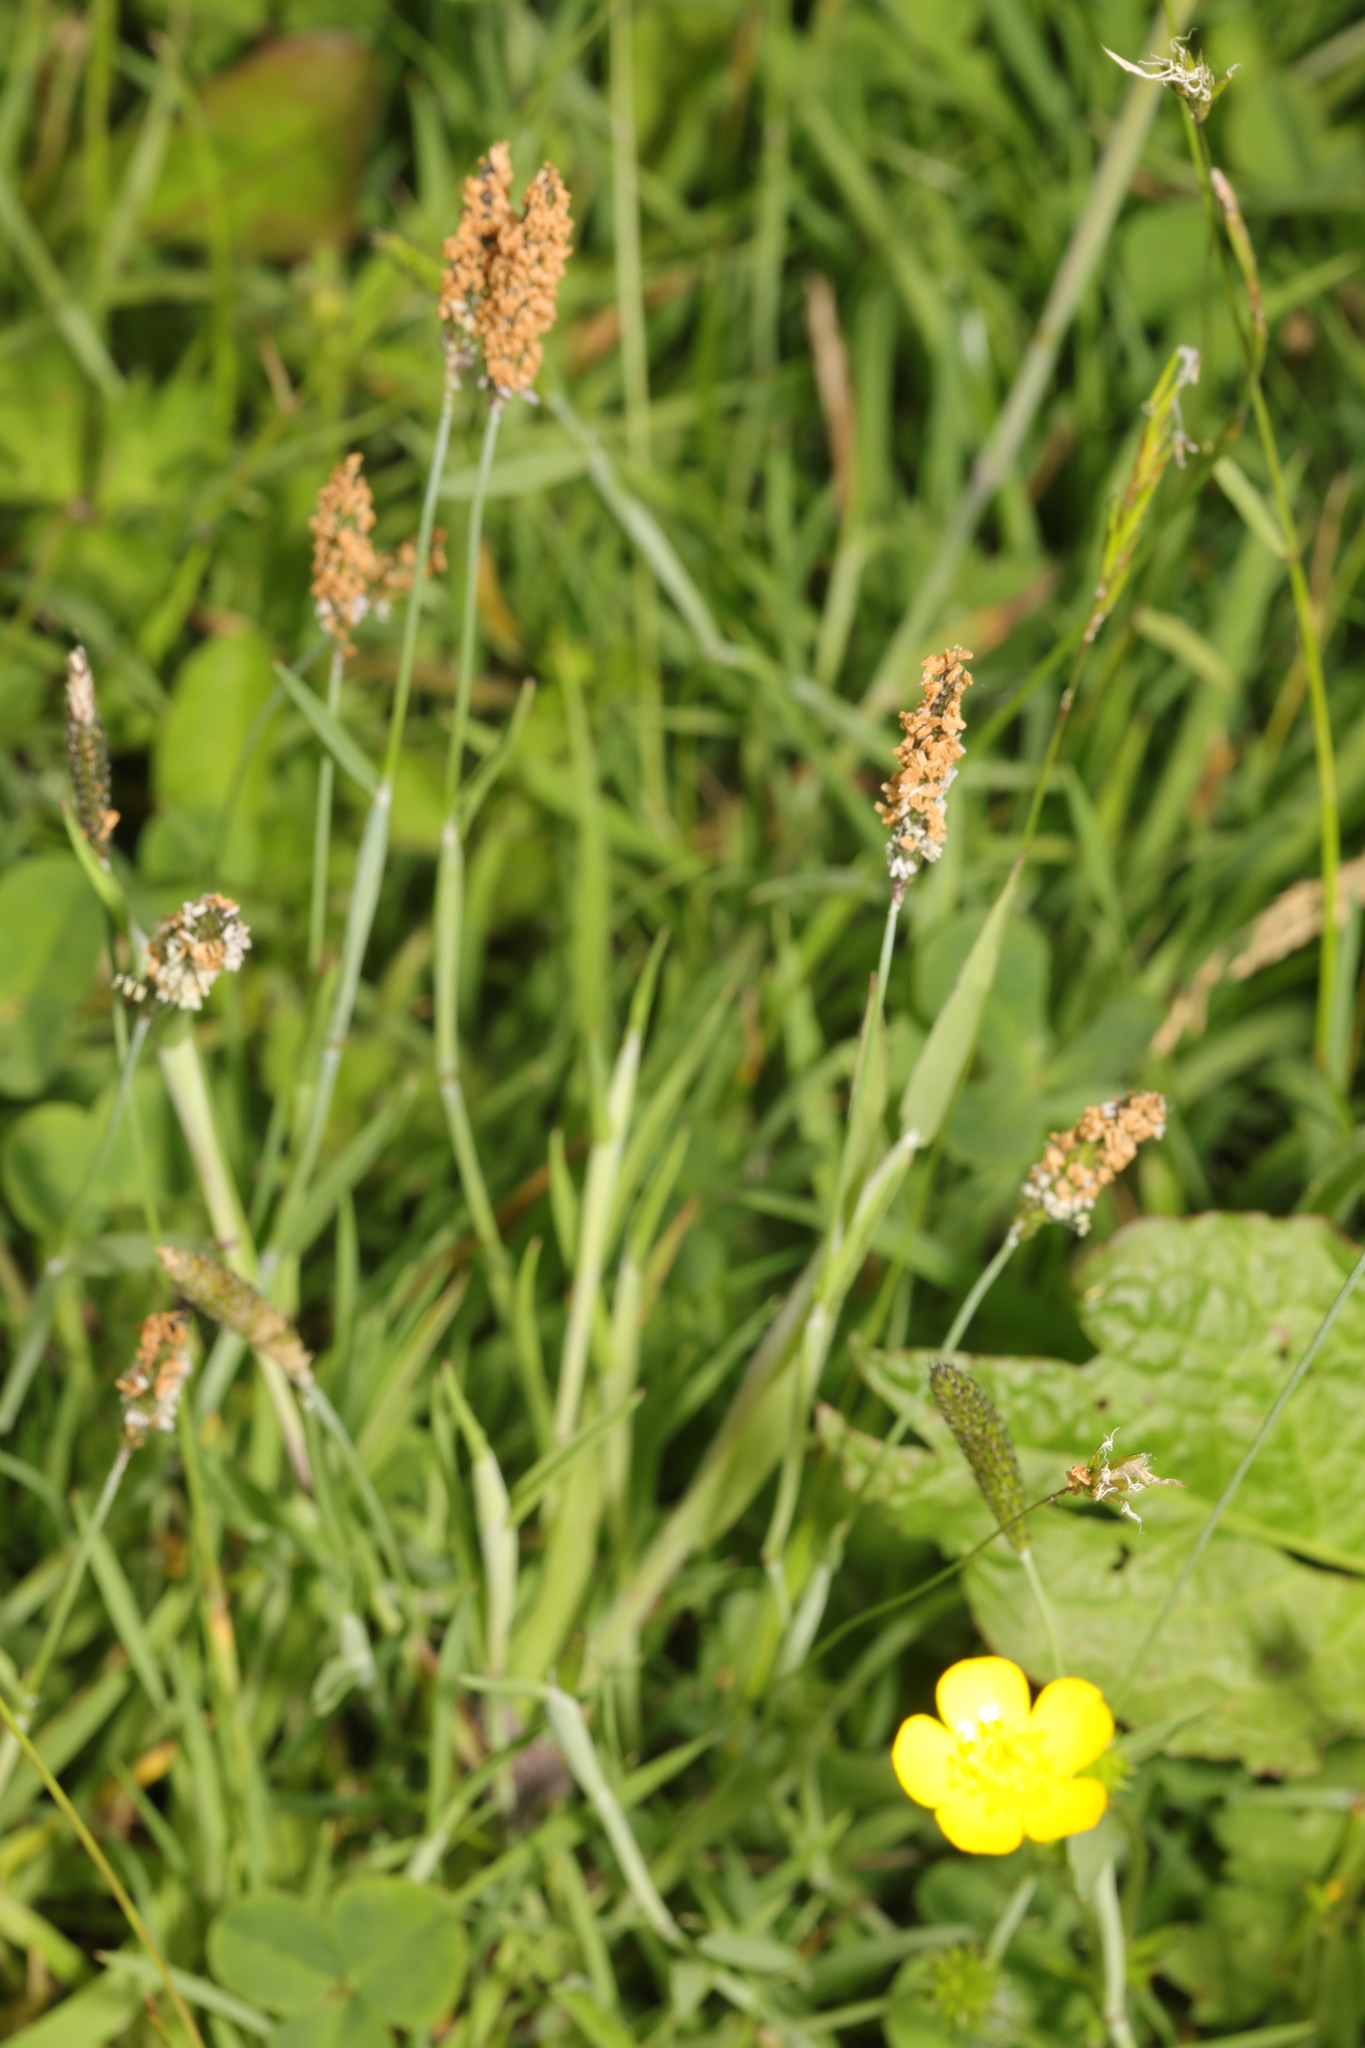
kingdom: Plantae
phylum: Tracheophyta
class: Liliopsida
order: Poales
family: Poaceae
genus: Alopecurus
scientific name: Alopecurus geniculatus
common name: Water foxtail
